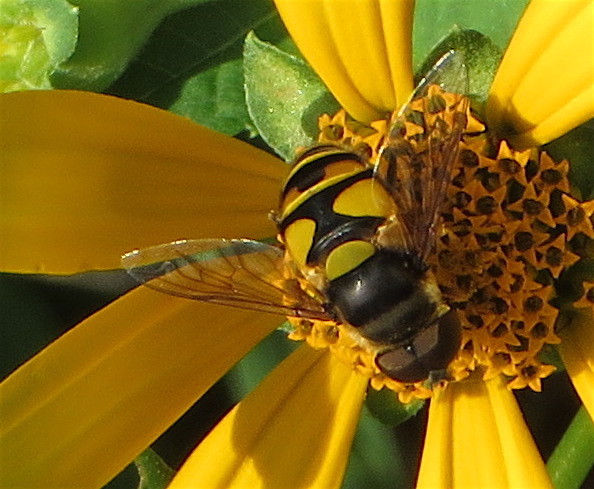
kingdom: Animalia
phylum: Arthropoda
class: Insecta
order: Diptera
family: Syrphidae
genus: Eristalis
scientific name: Eristalis transversa
